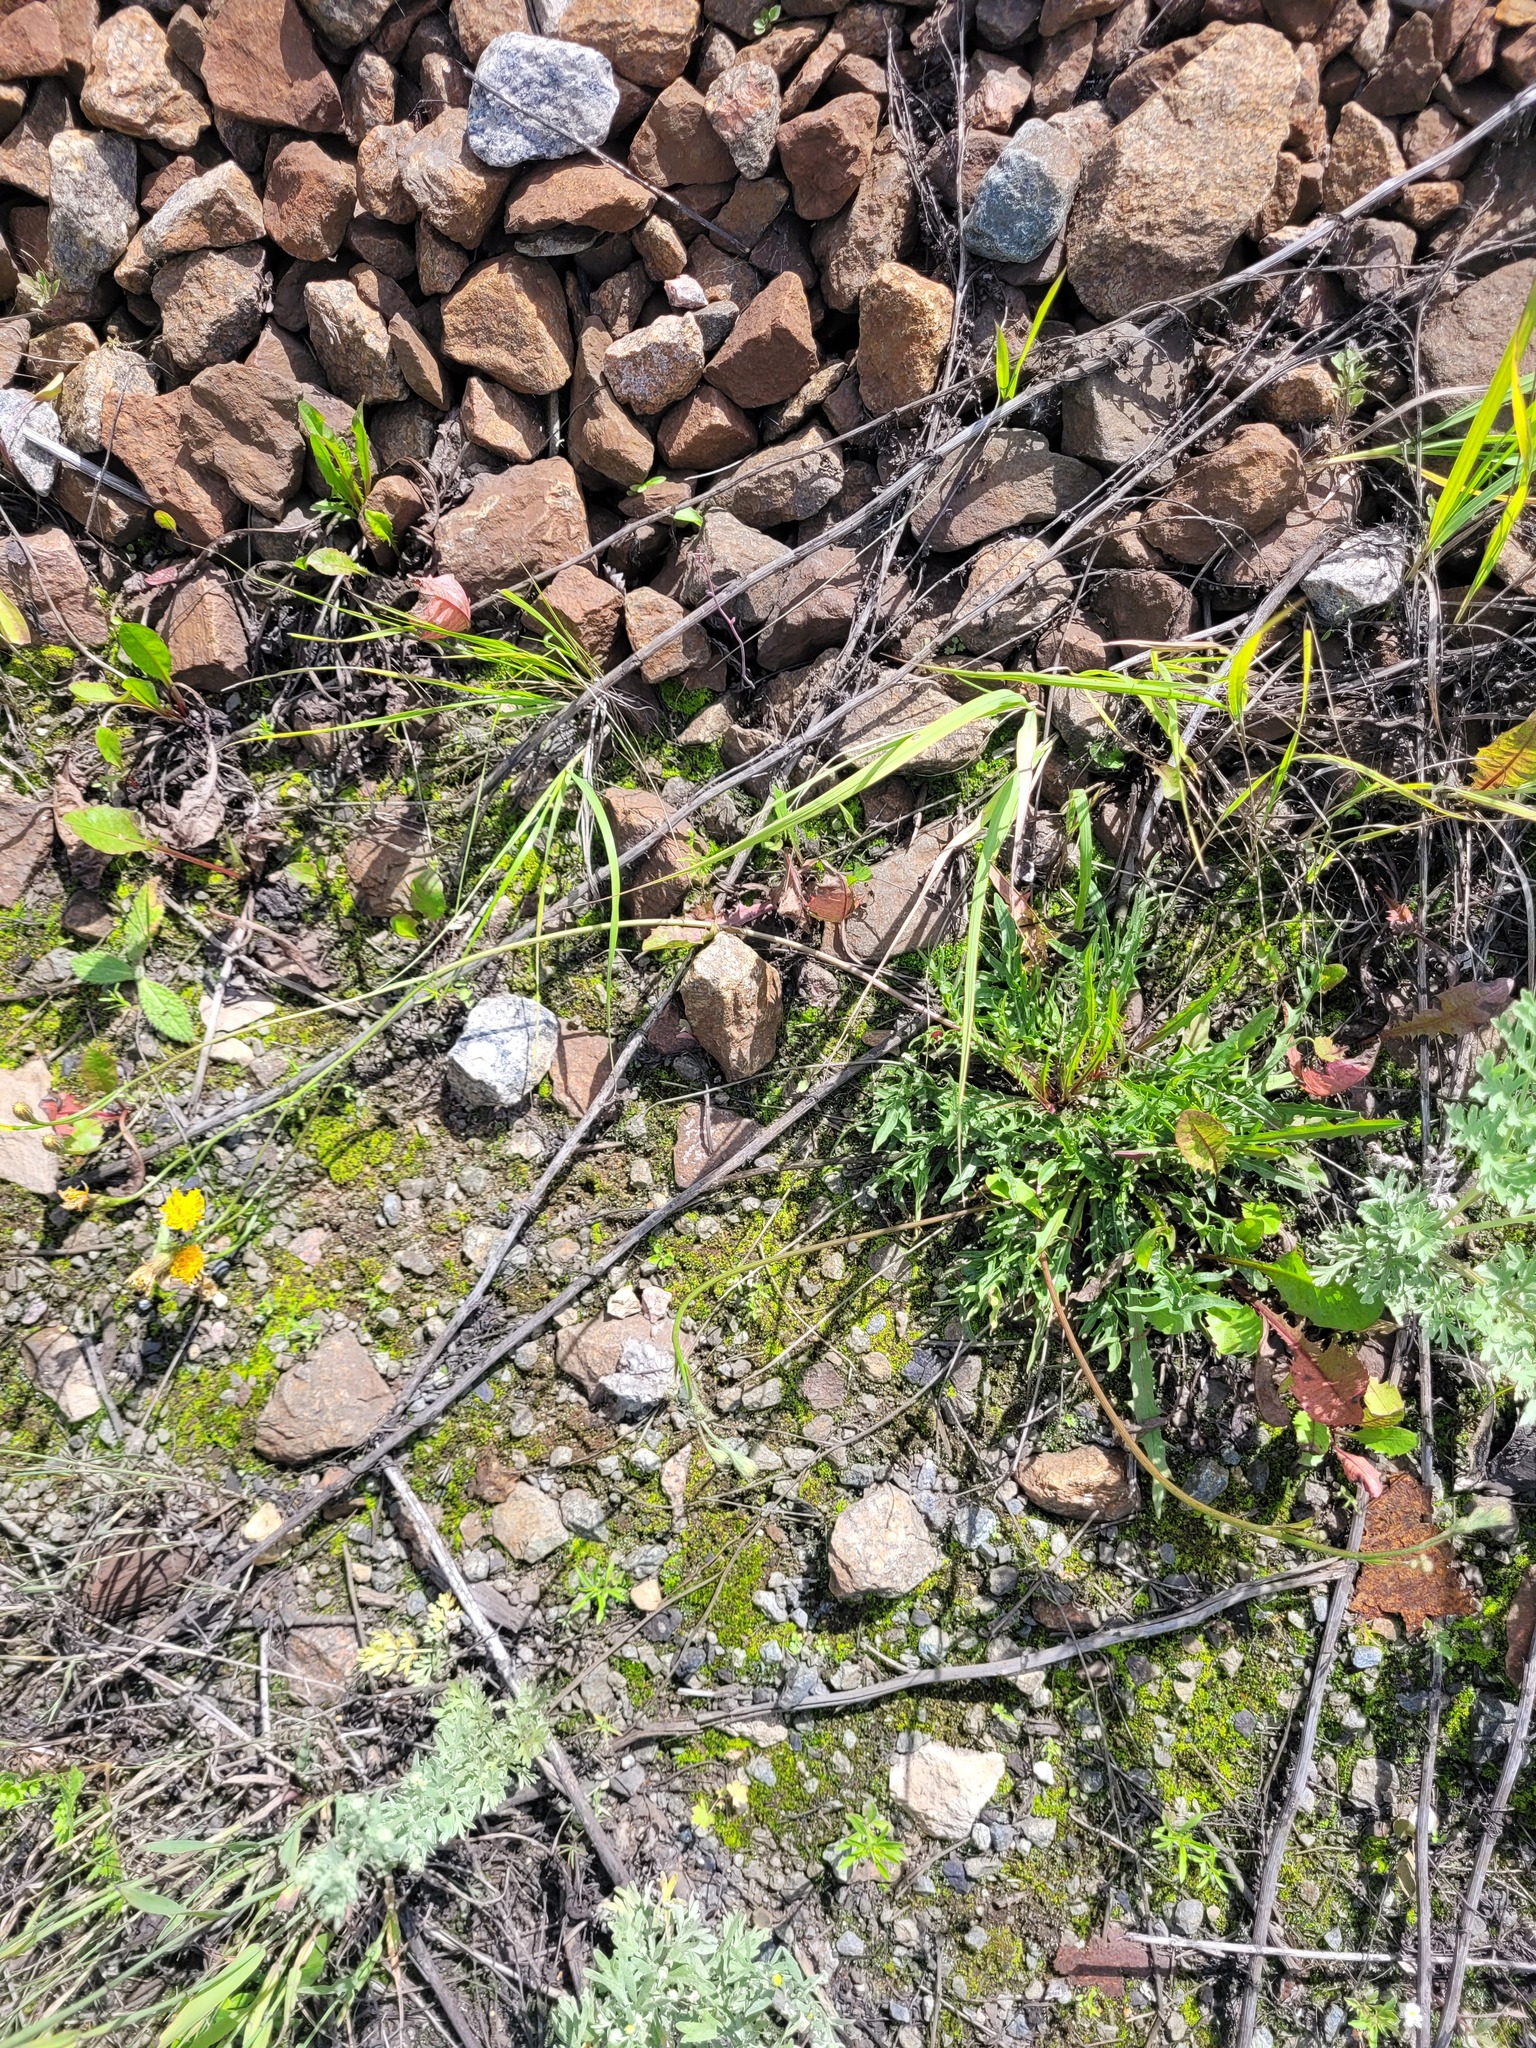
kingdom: Plantae
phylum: Tracheophyta
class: Magnoliopsida
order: Asterales
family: Asteraceae
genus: Scorzoneroides
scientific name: Scorzoneroides autumnalis
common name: Autumn hawkbit
